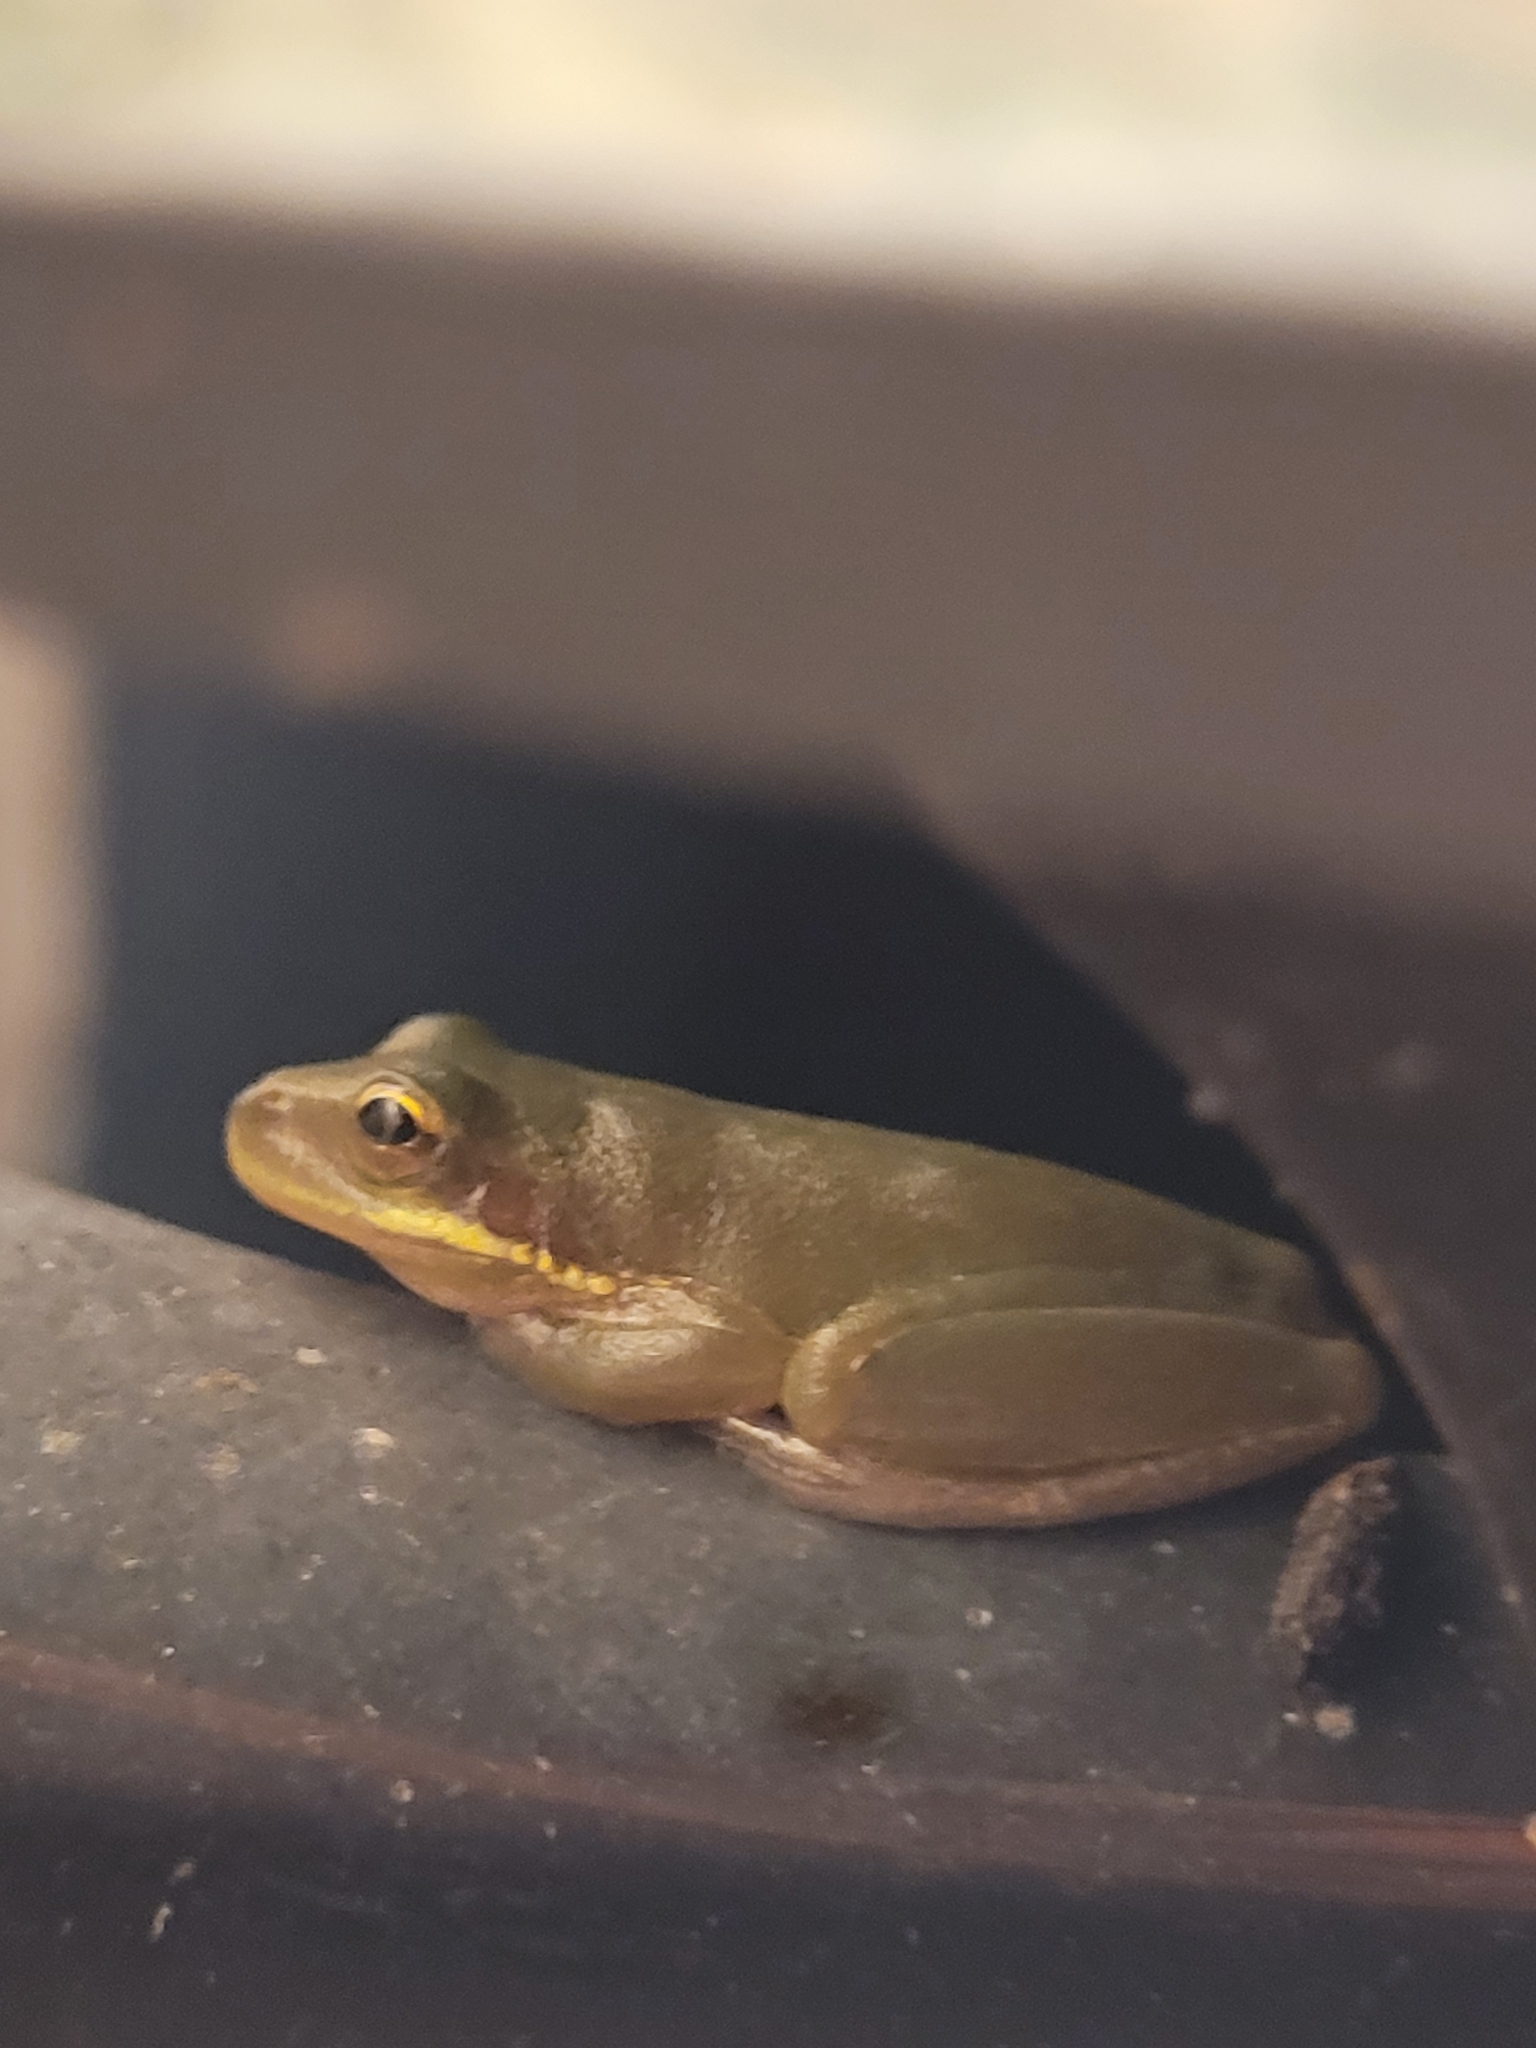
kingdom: Animalia
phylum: Chordata
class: Amphibia
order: Anura
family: Hylidae
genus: Dryophytes
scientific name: Dryophytes squirellus
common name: Squirrel treefrog
